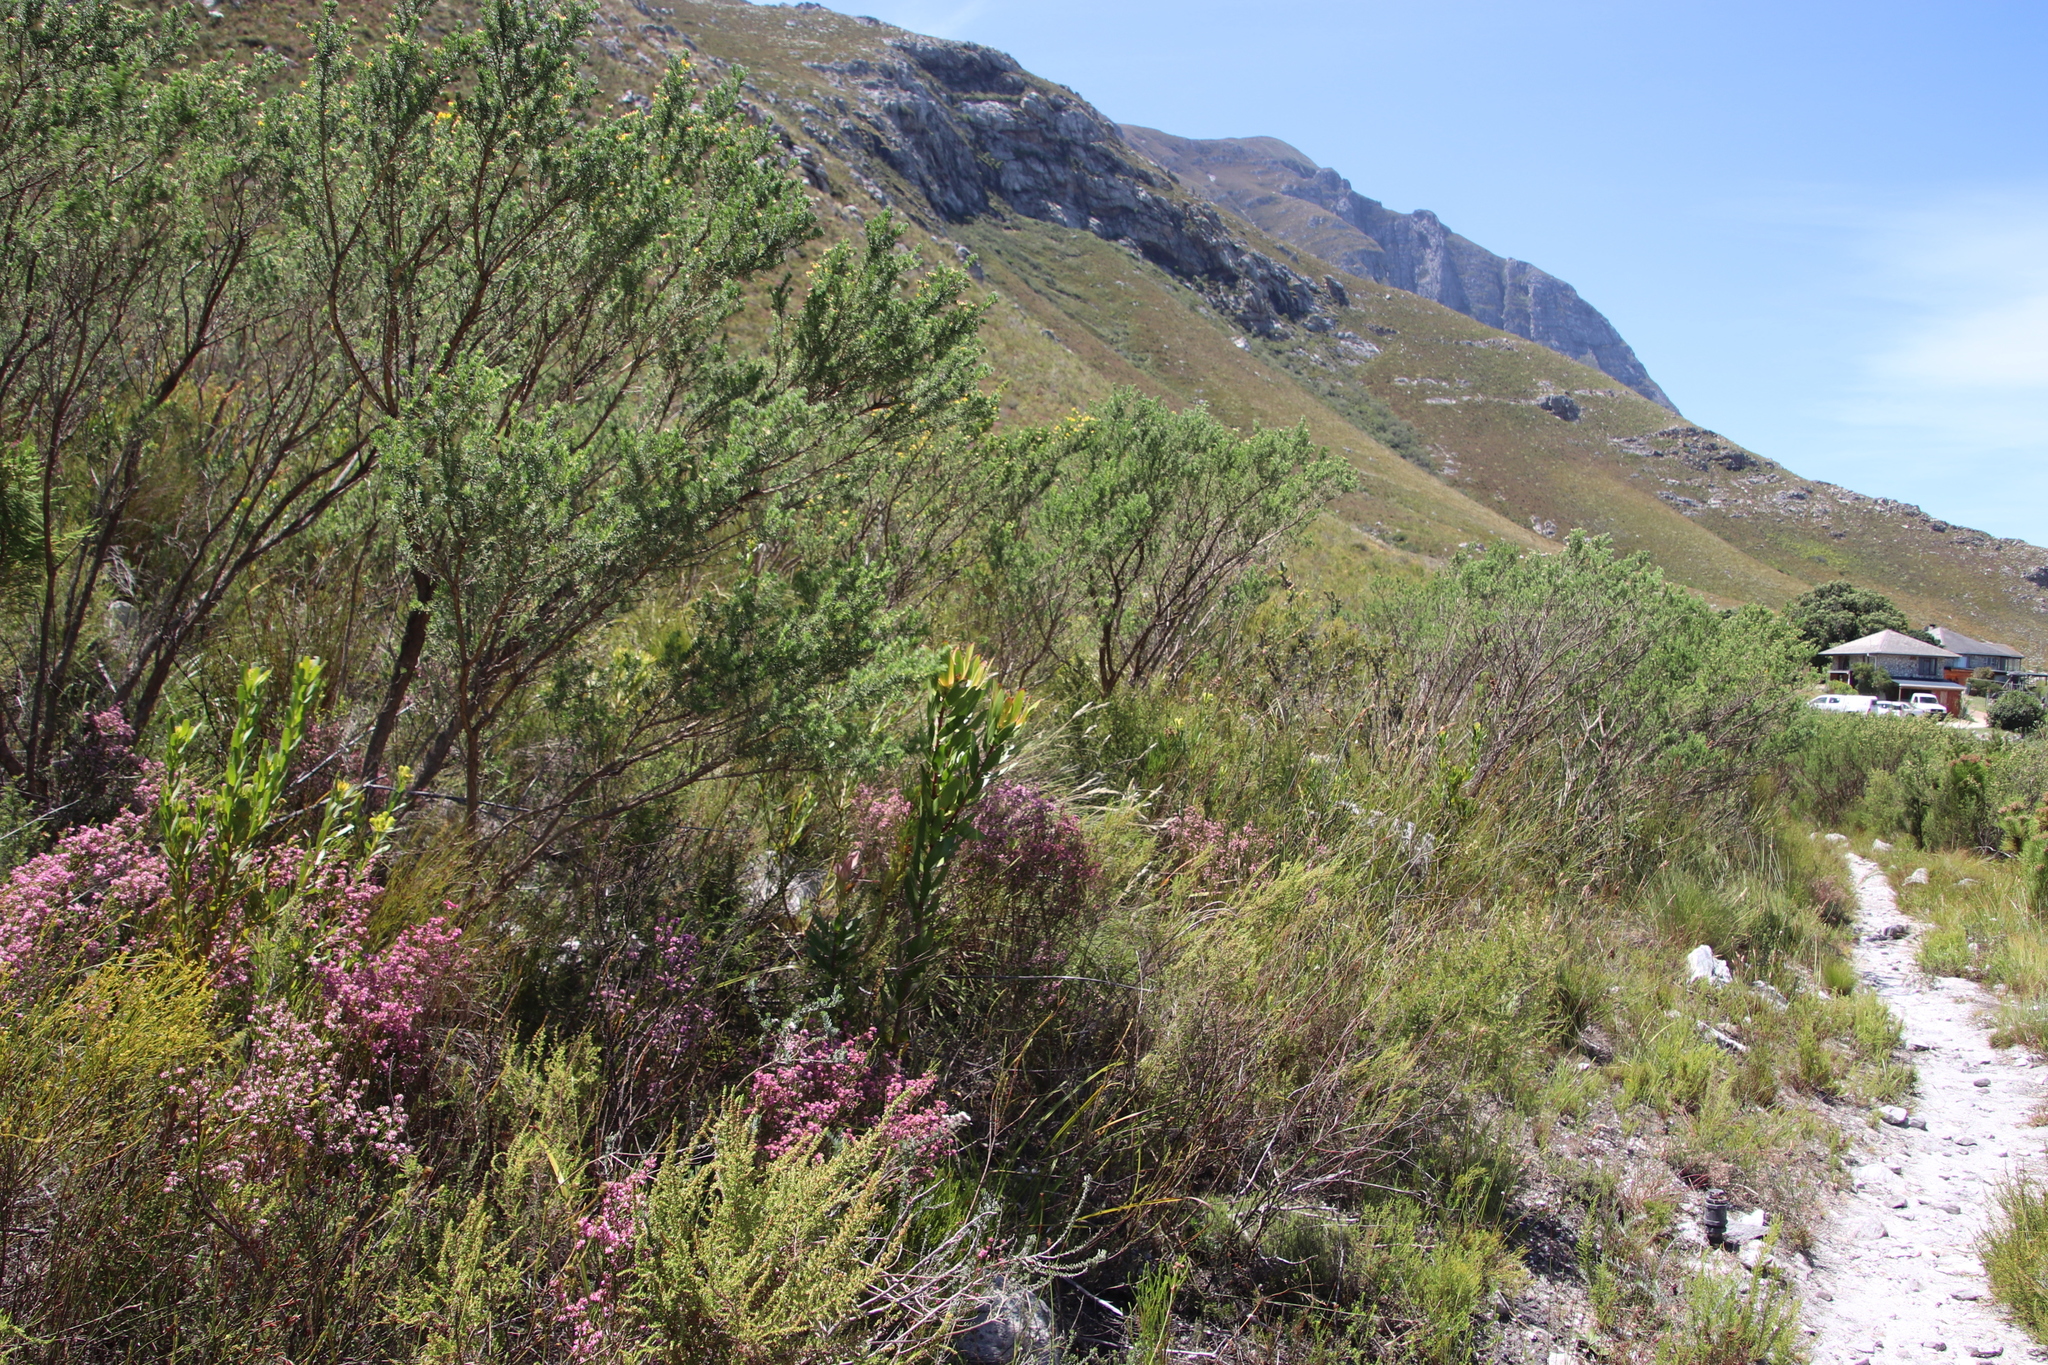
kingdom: Plantae
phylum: Tracheophyta
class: Magnoliopsida
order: Proteales
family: Proteaceae
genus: Leucadendron
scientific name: Leucadendron gandogeri
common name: Broad-leaf conebush
